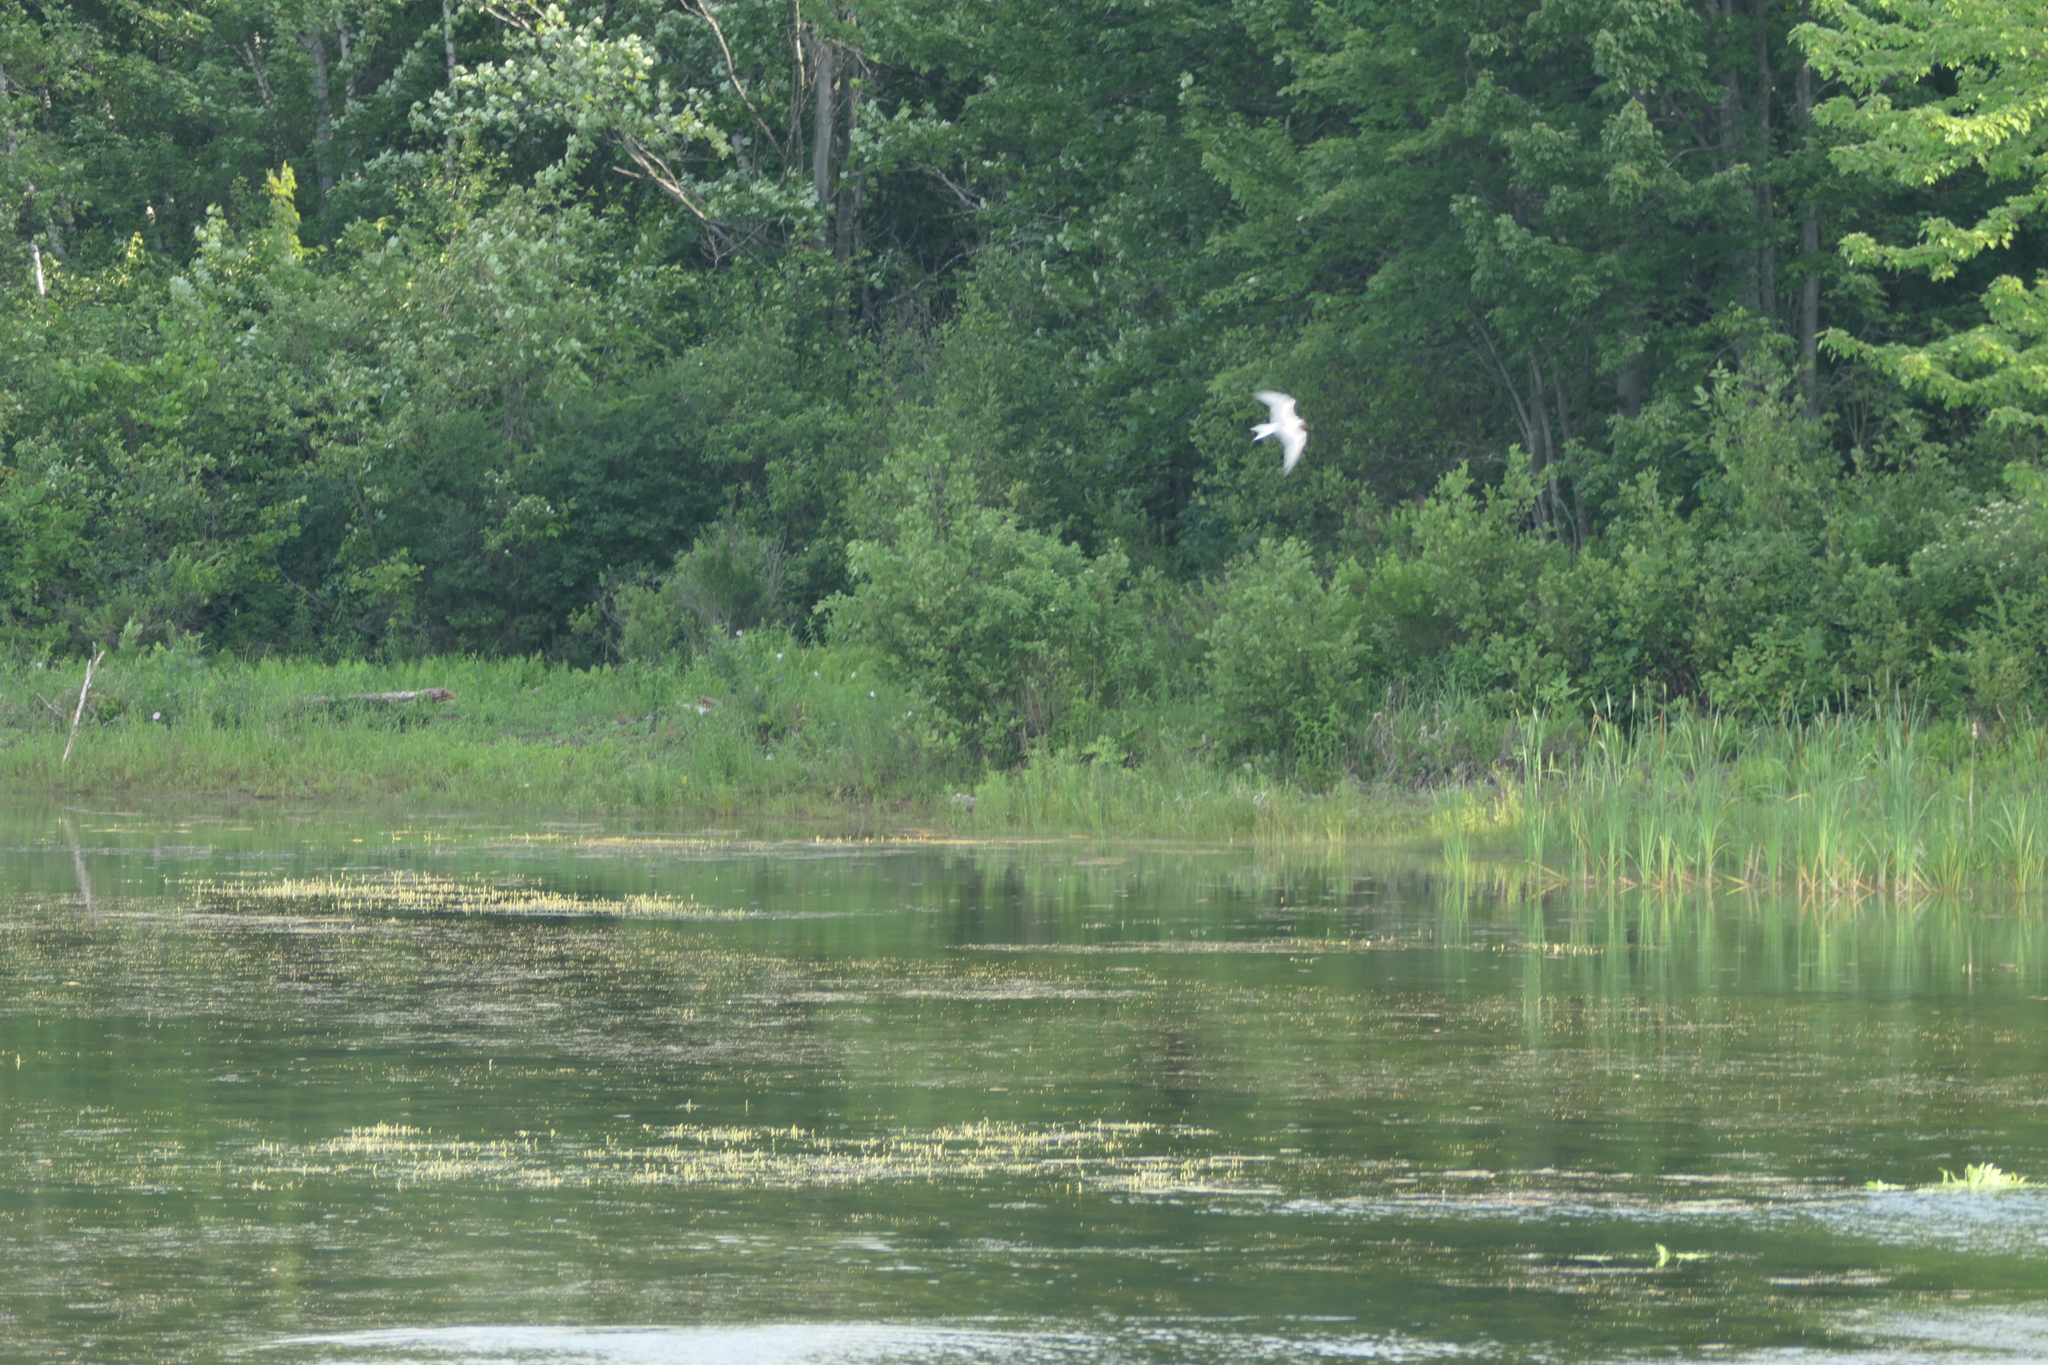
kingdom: Animalia
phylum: Chordata
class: Aves
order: Charadriiformes
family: Laridae
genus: Sterna
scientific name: Sterna hirundo
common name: Common tern
